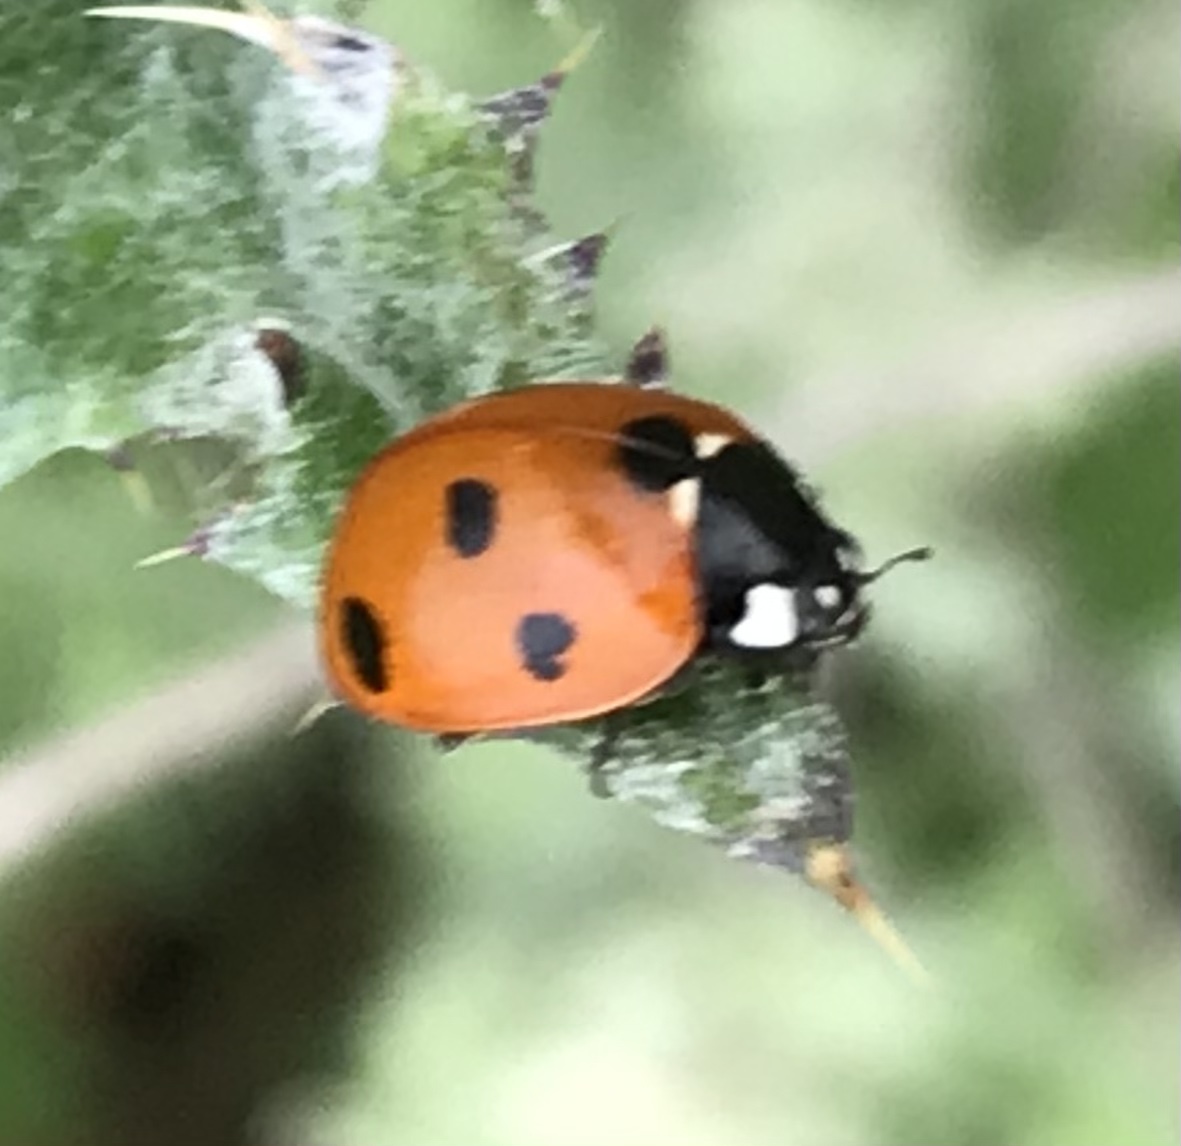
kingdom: Animalia
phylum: Arthropoda
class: Insecta
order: Coleoptera
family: Coccinellidae
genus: Coccinella
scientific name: Coccinella septempunctata
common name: Sevenspotted lady beetle
